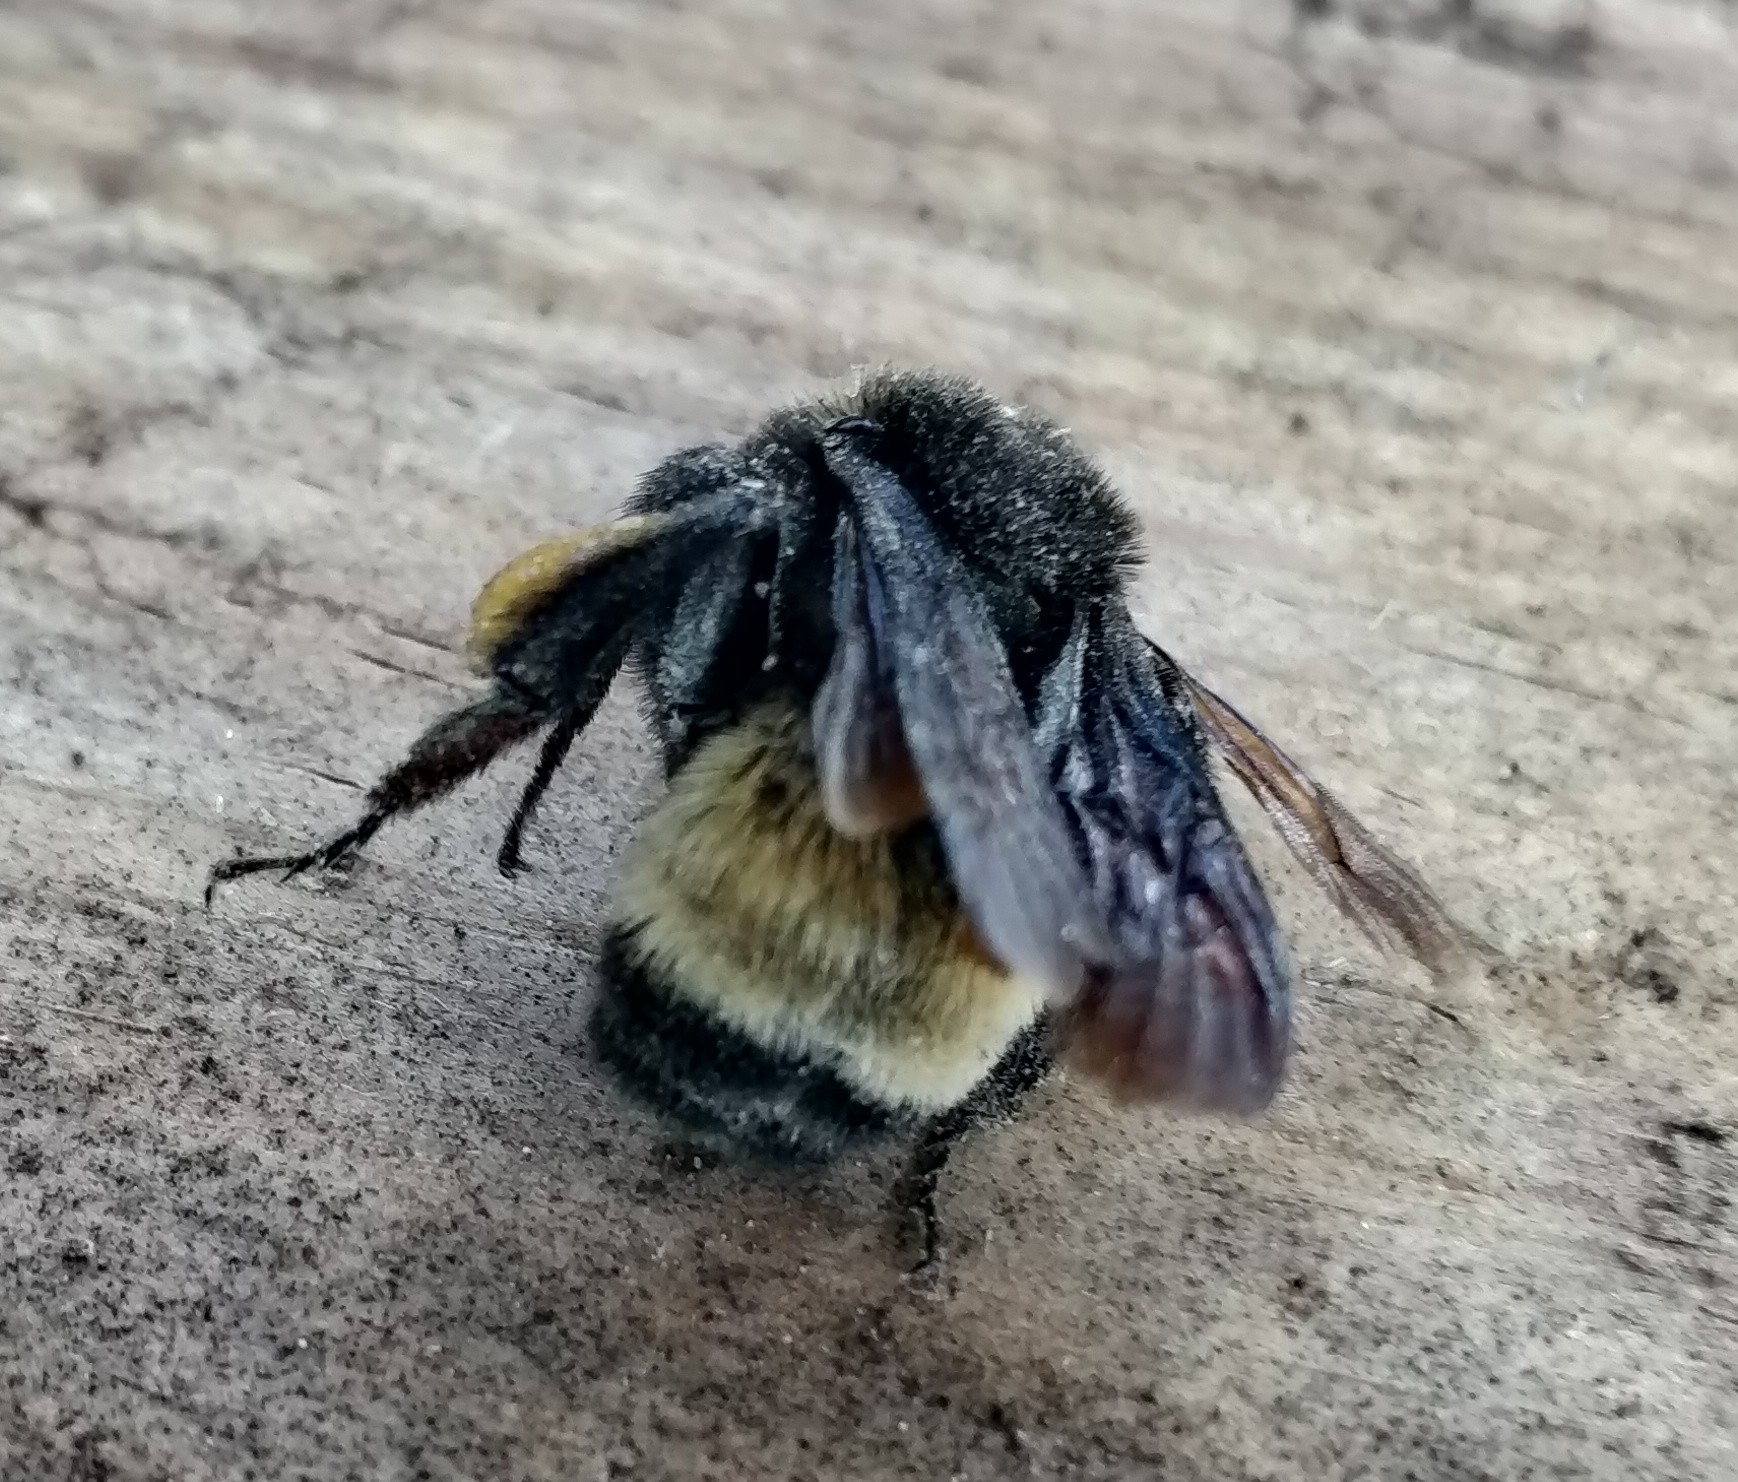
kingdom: Animalia
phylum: Arthropoda
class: Insecta
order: Hymenoptera
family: Apidae
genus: Bombus
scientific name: Bombus pensylvanicus
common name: Bumble bee
